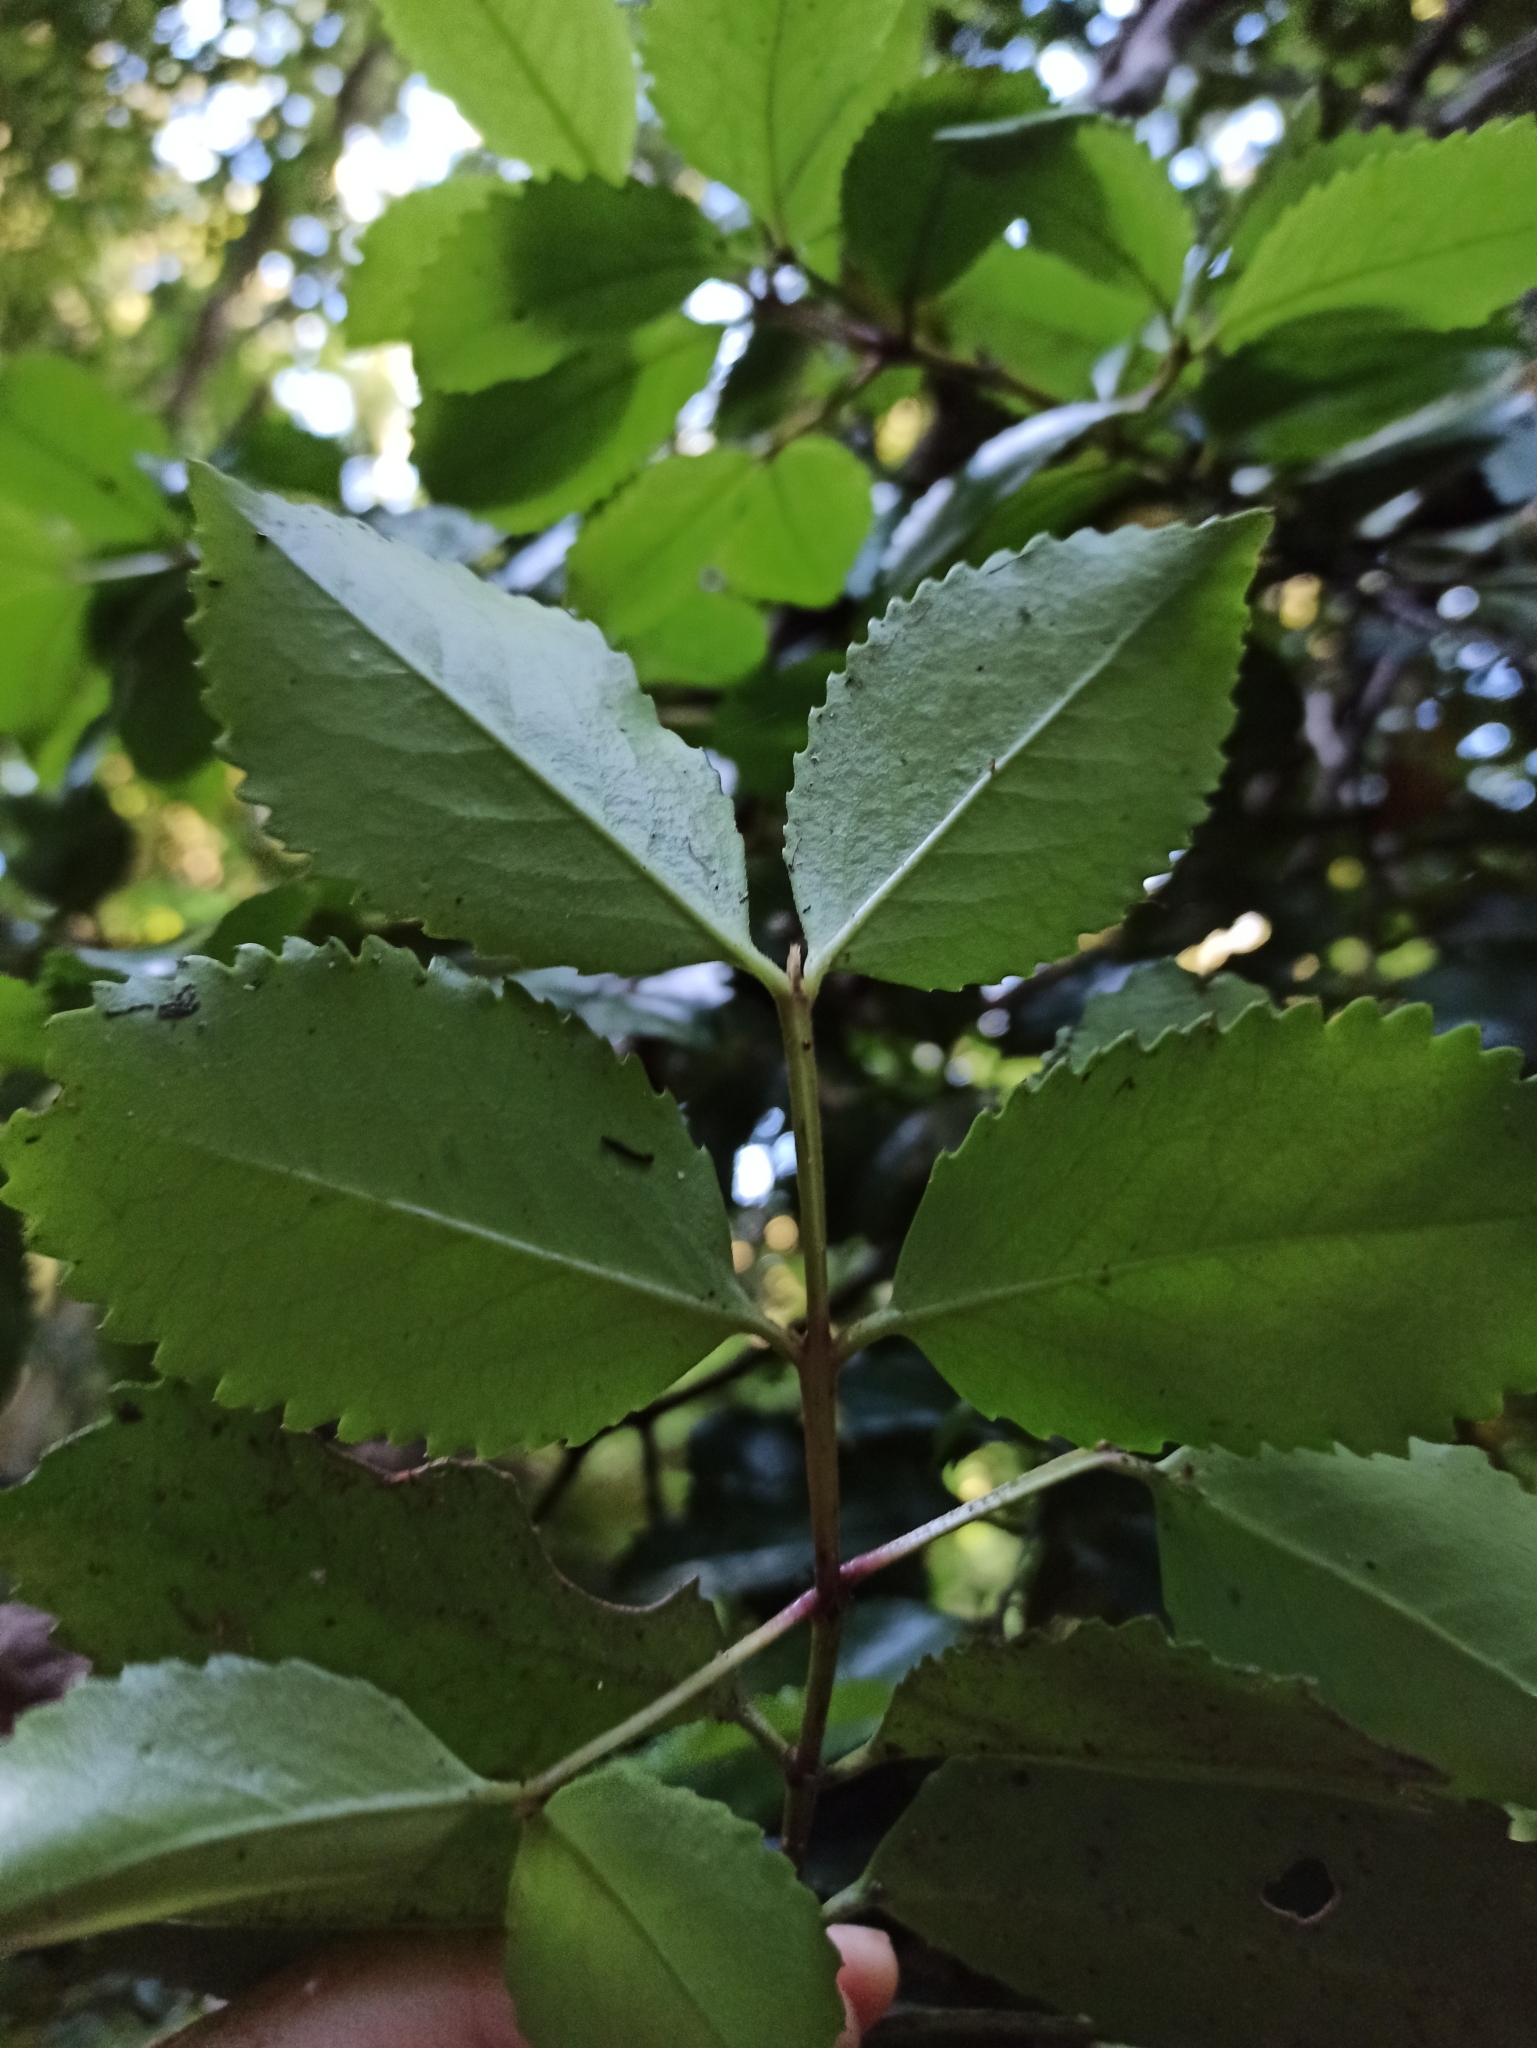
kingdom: Plantae
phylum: Tracheophyta
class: Magnoliopsida
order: Laurales
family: Atherospermataceae
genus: Laurelia
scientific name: Laurelia novae-zelandiae
